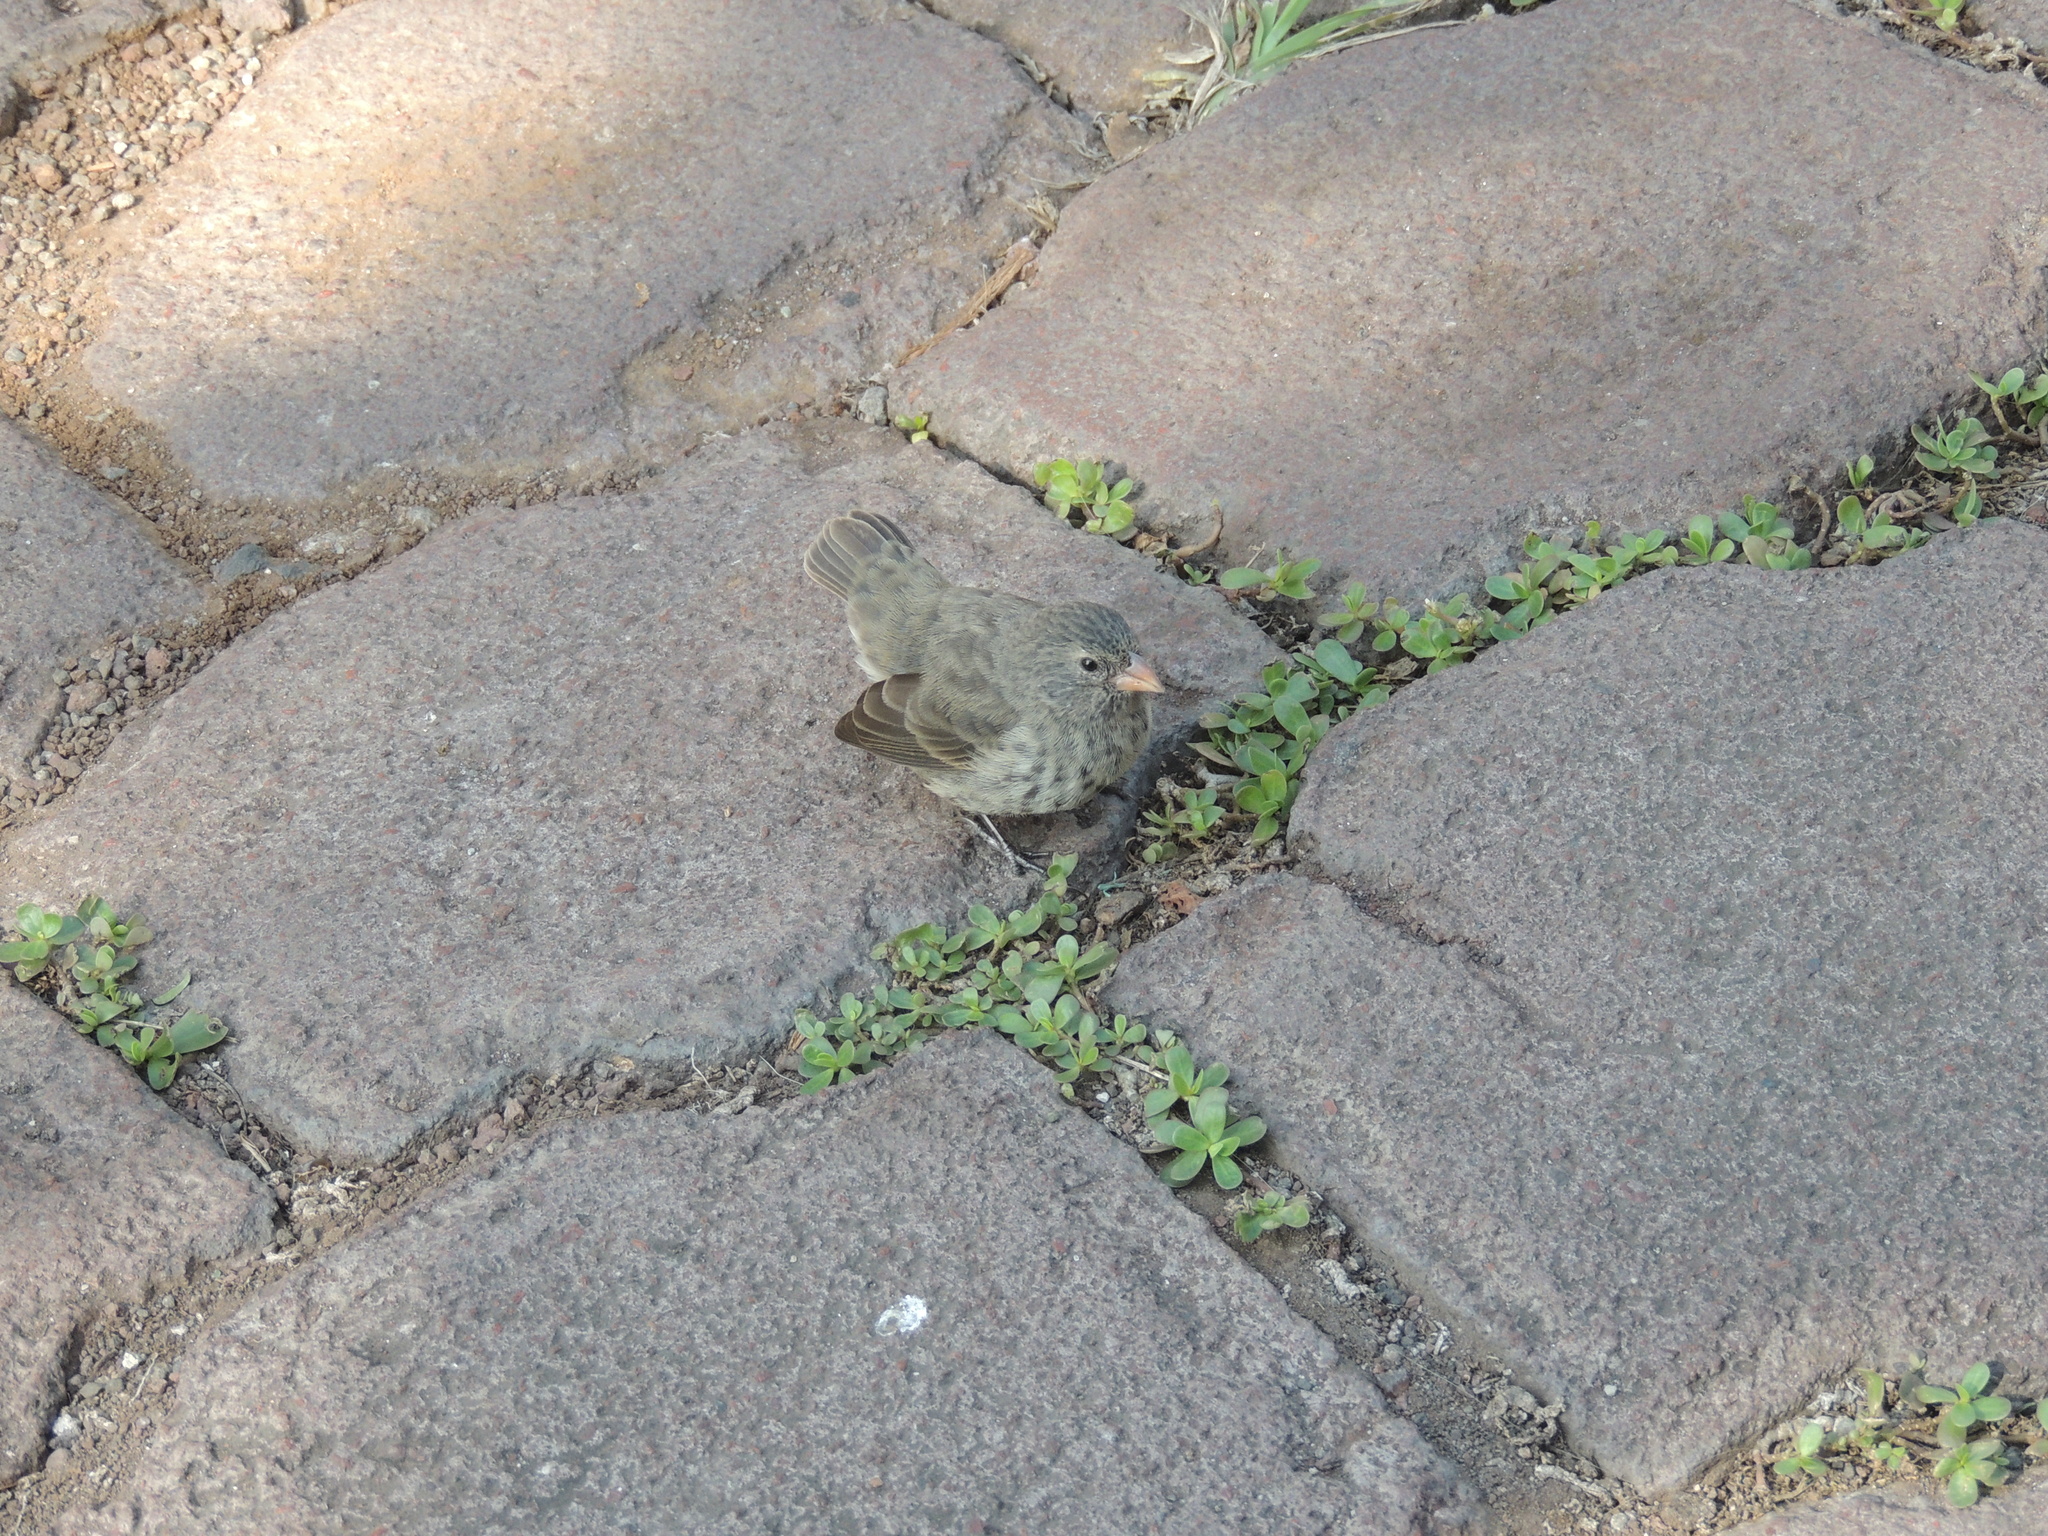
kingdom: Animalia
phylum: Chordata
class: Aves
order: Passeriformes
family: Thraupidae
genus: Geospiza
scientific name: Geospiza fuliginosa
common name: Small ground finch
